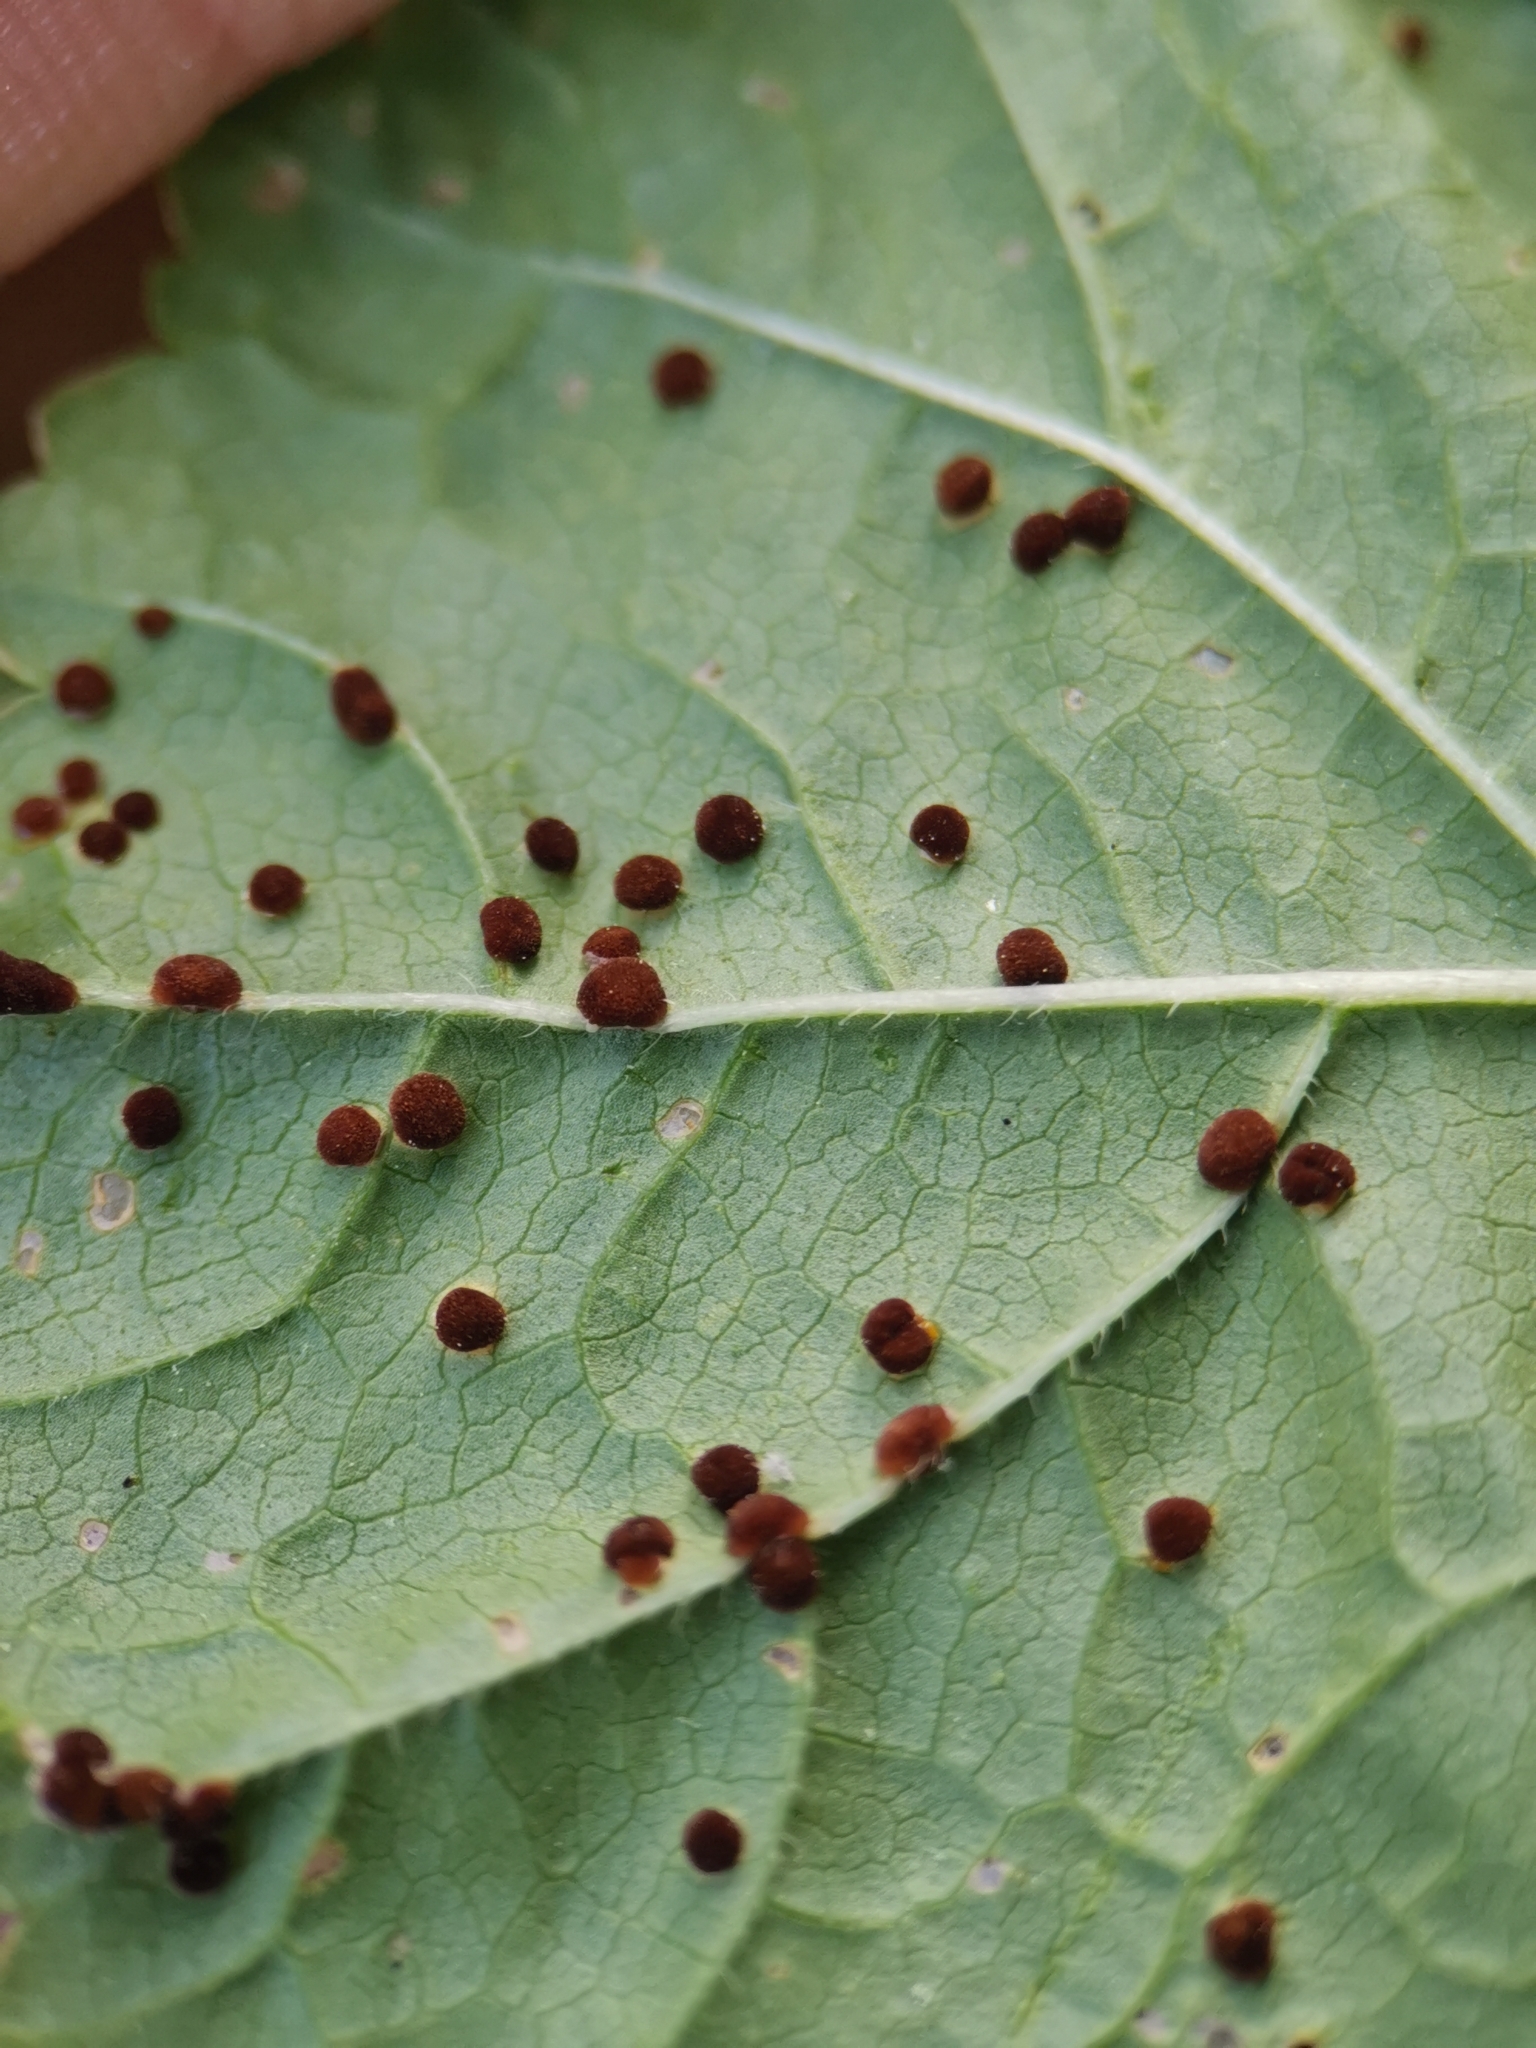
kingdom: Fungi
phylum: Basidiomycota
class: Pucciniomycetes
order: Pucciniales
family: Pucciniaceae
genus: Puccinia
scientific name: Puccinia malvacearum
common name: Hollyhock rust
